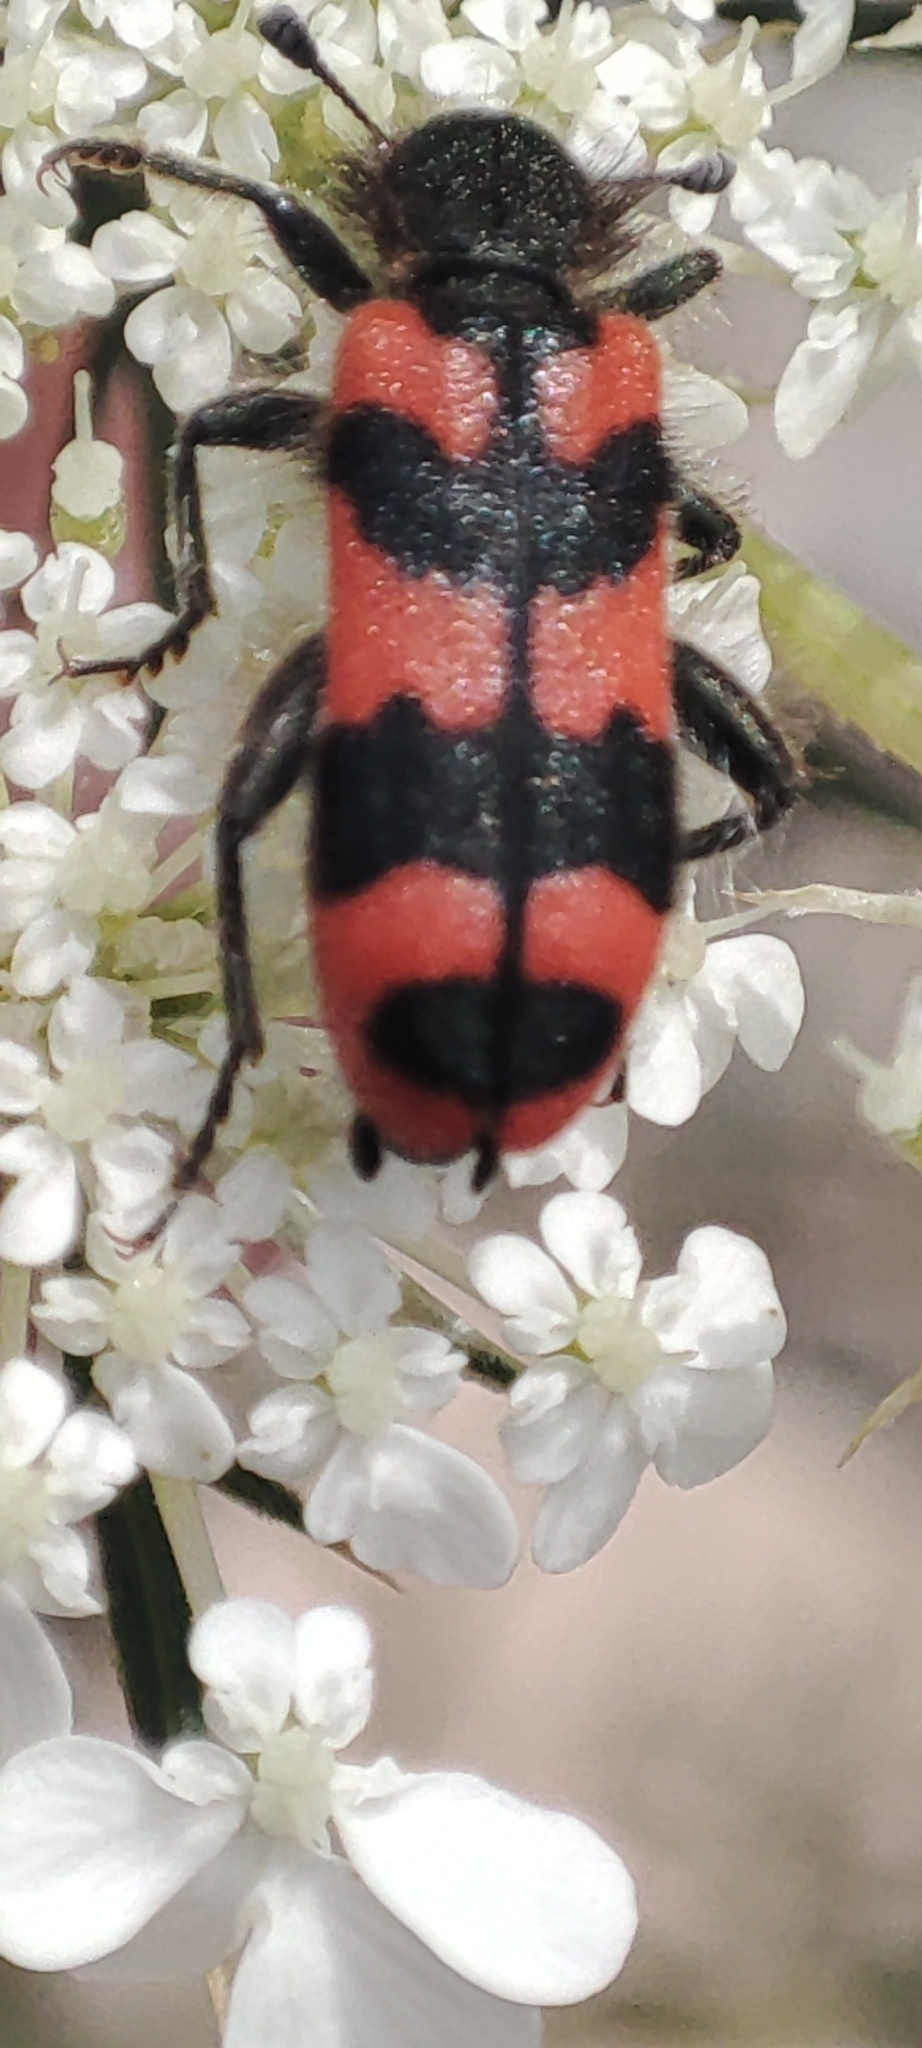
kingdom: Animalia
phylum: Arthropoda
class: Insecta
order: Coleoptera
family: Cleridae
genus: Trichodes
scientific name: Trichodes alvearius
